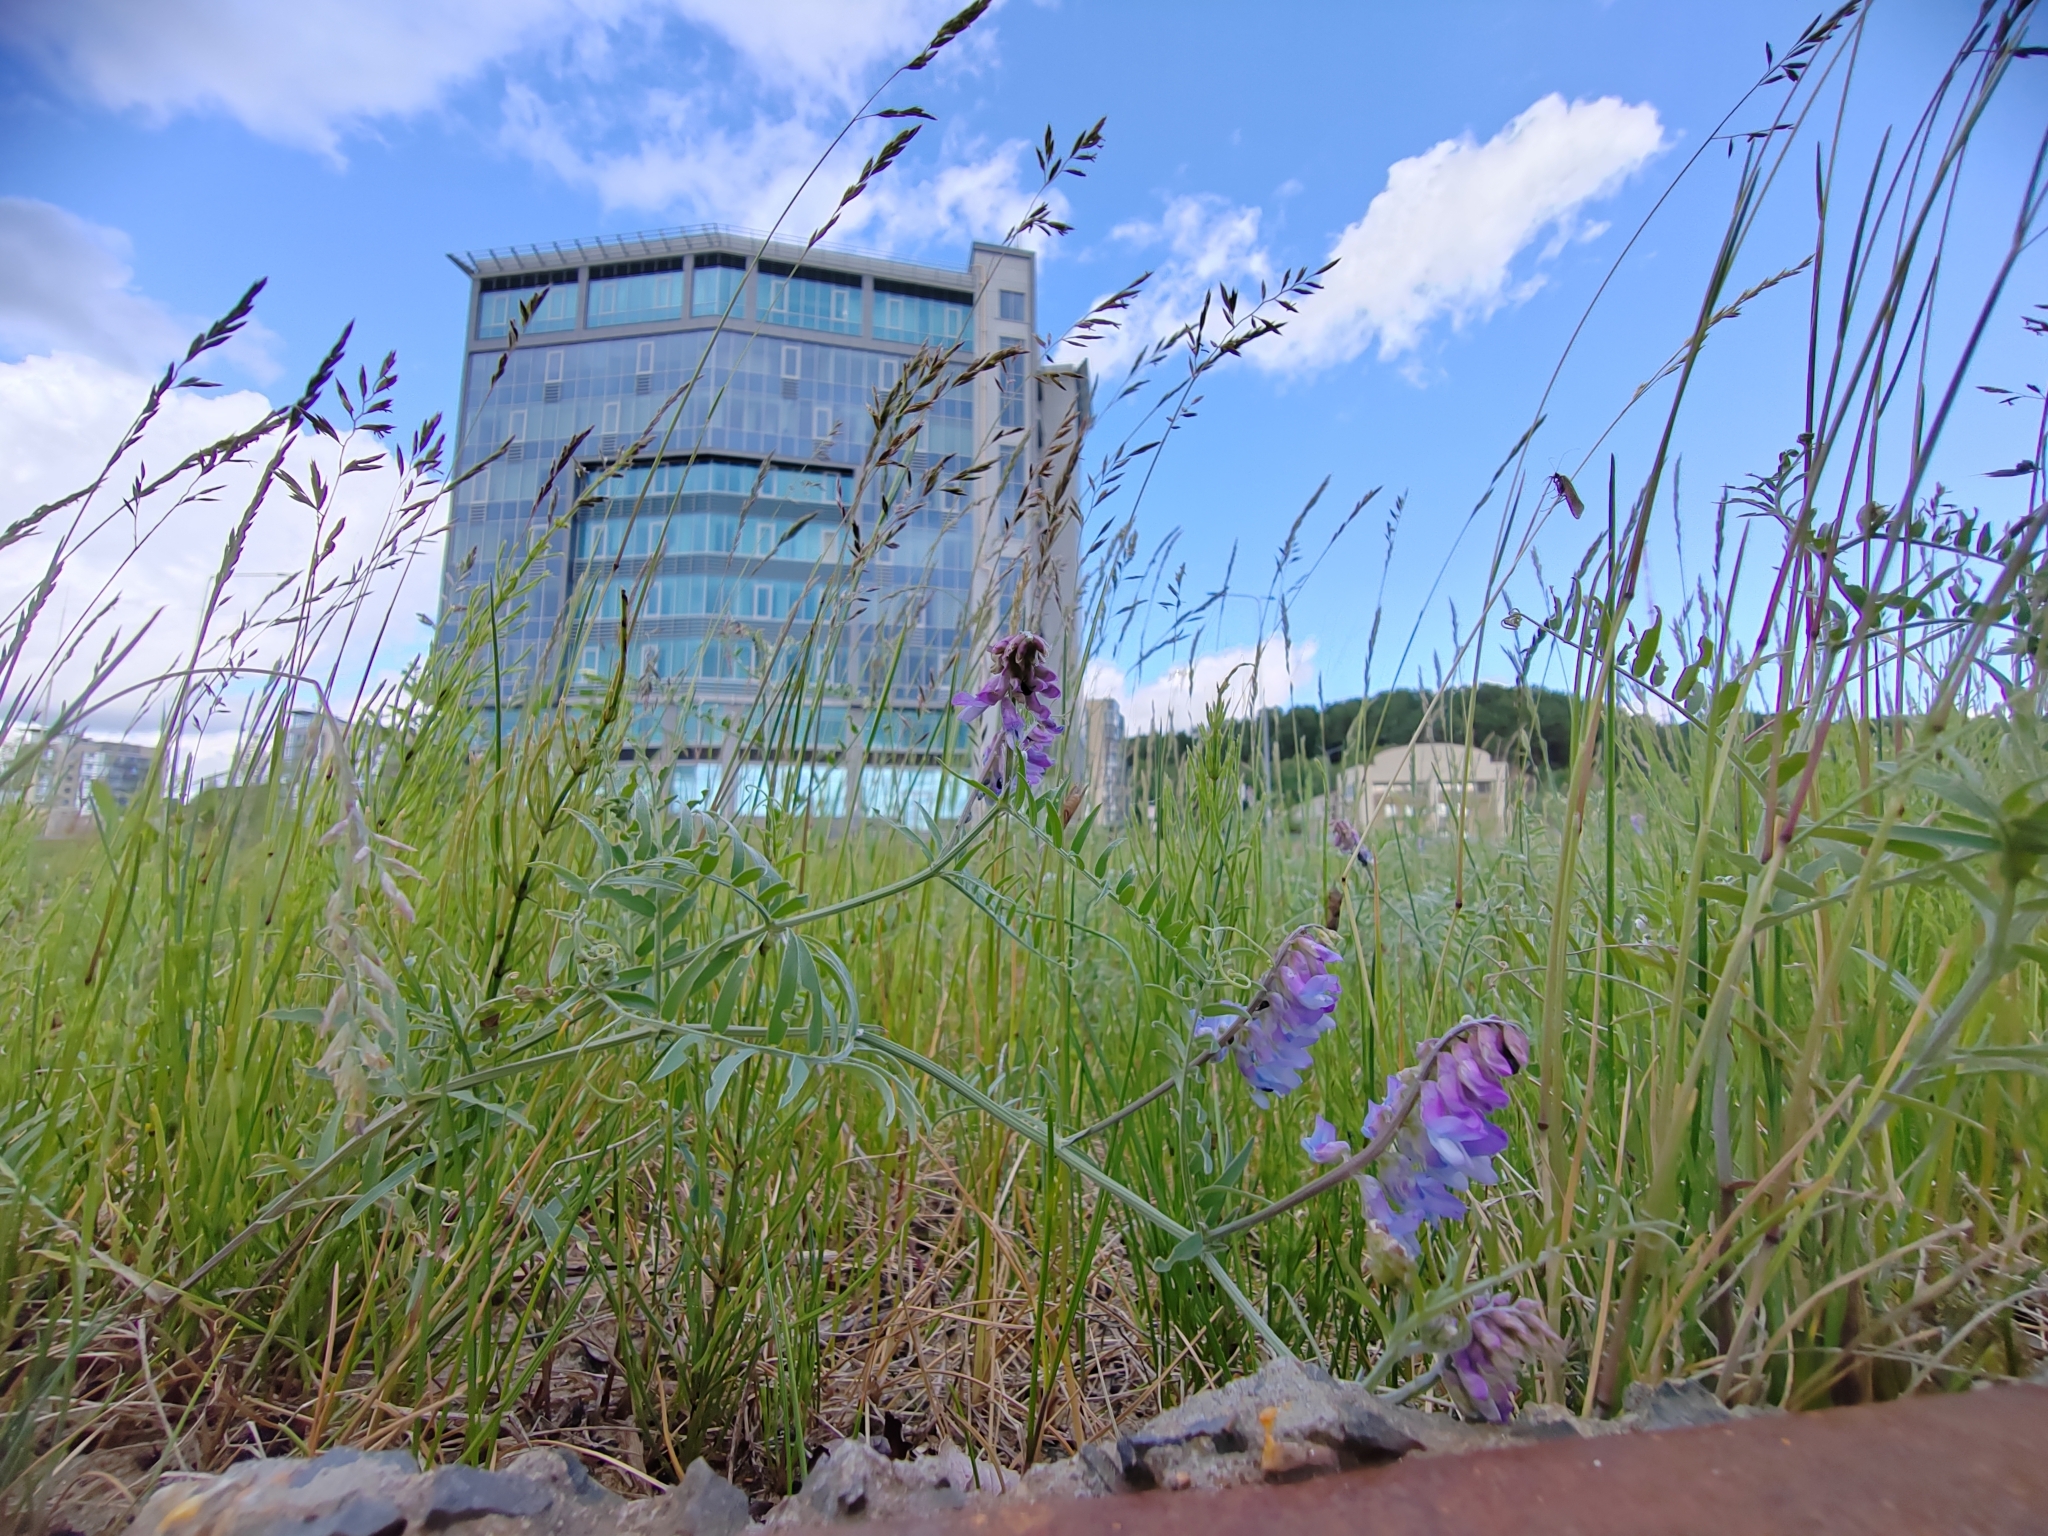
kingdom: Plantae
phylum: Tracheophyta
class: Magnoliopsida
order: Fabales
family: Fabaceae
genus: Vicia
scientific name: Vicia cracca
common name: Bird vetch
